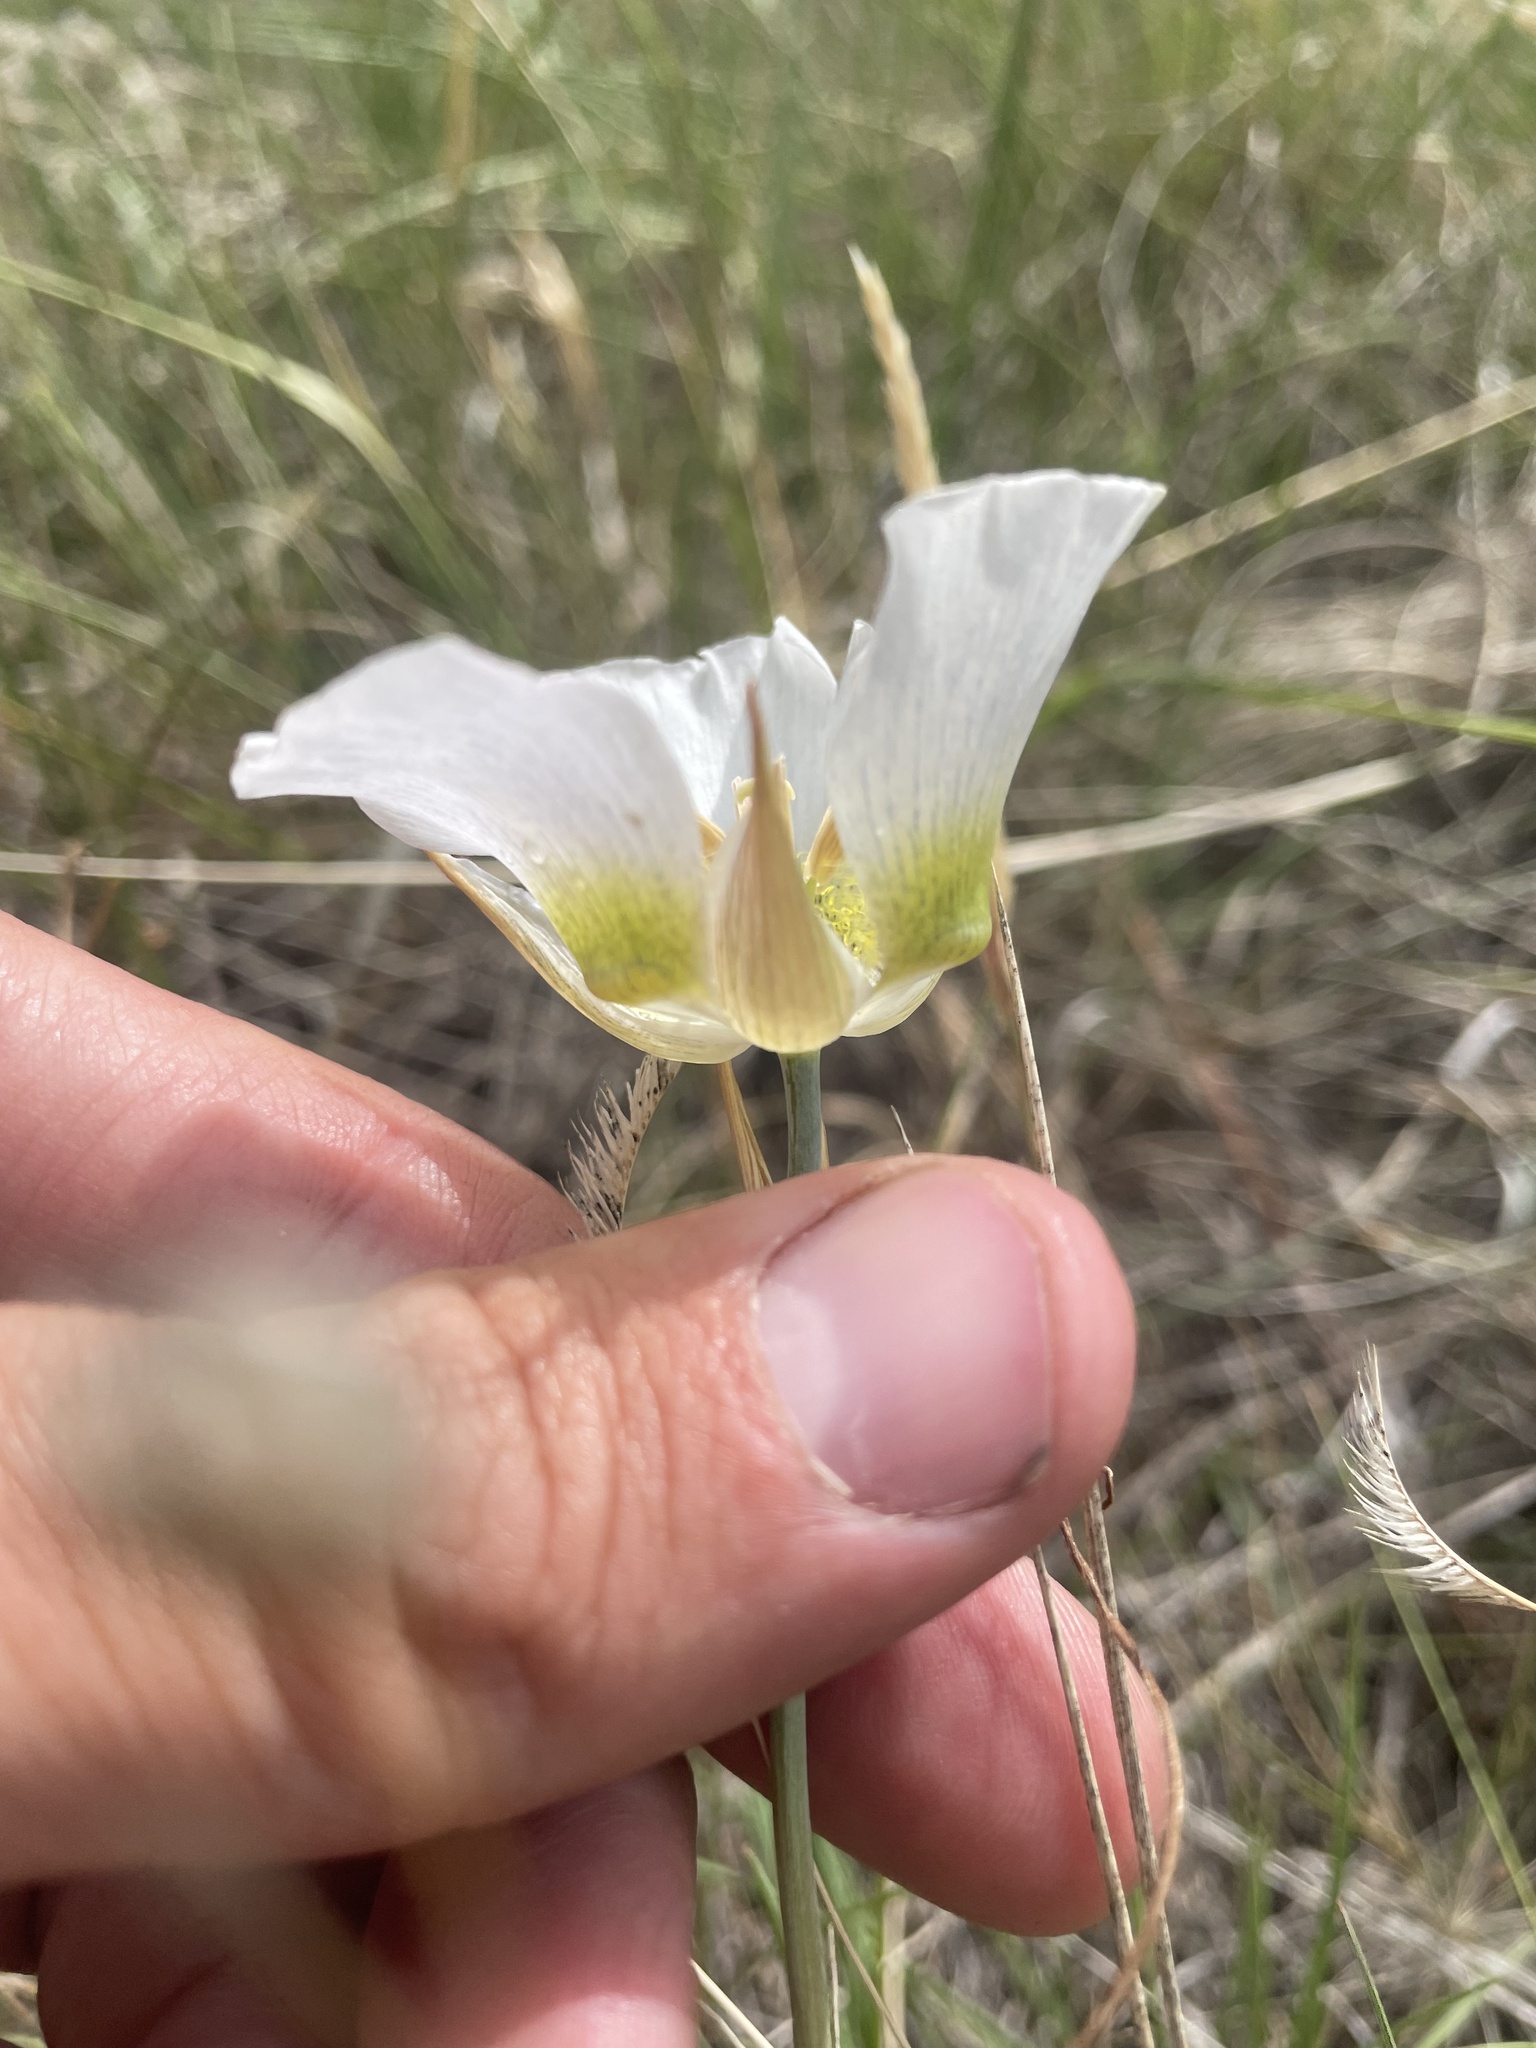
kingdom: Plantae
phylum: Tracheophyta
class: Liliopsida
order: Liliales
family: Liliaceae
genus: Calochortus
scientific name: Calochortus gunnisonii
